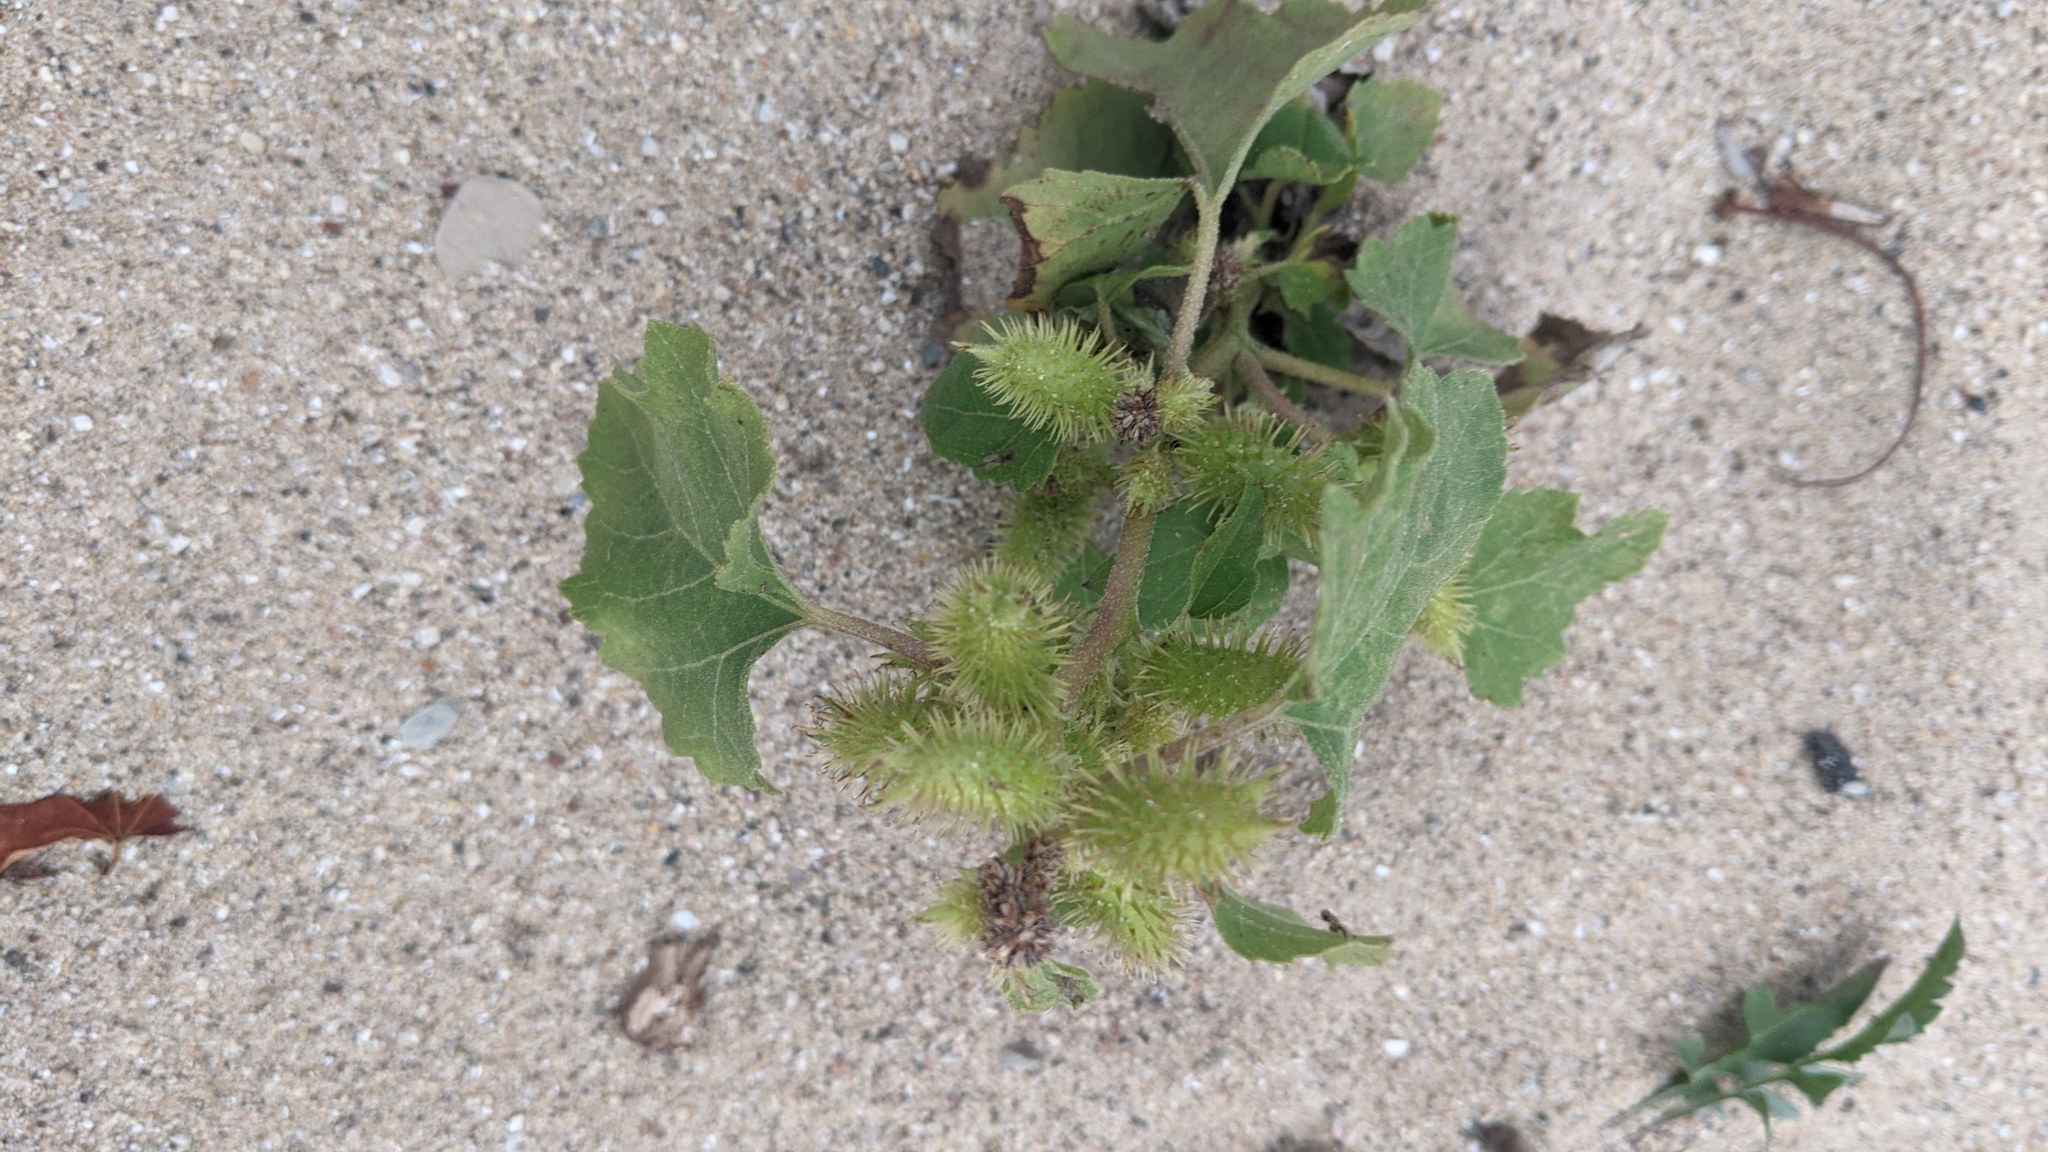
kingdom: Plantae
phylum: Tracheophyta
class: Magnoliopsida
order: Asterales
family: Asteraceae
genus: Xanthium
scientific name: Xanthium strumarium
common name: Rough cocklebur
